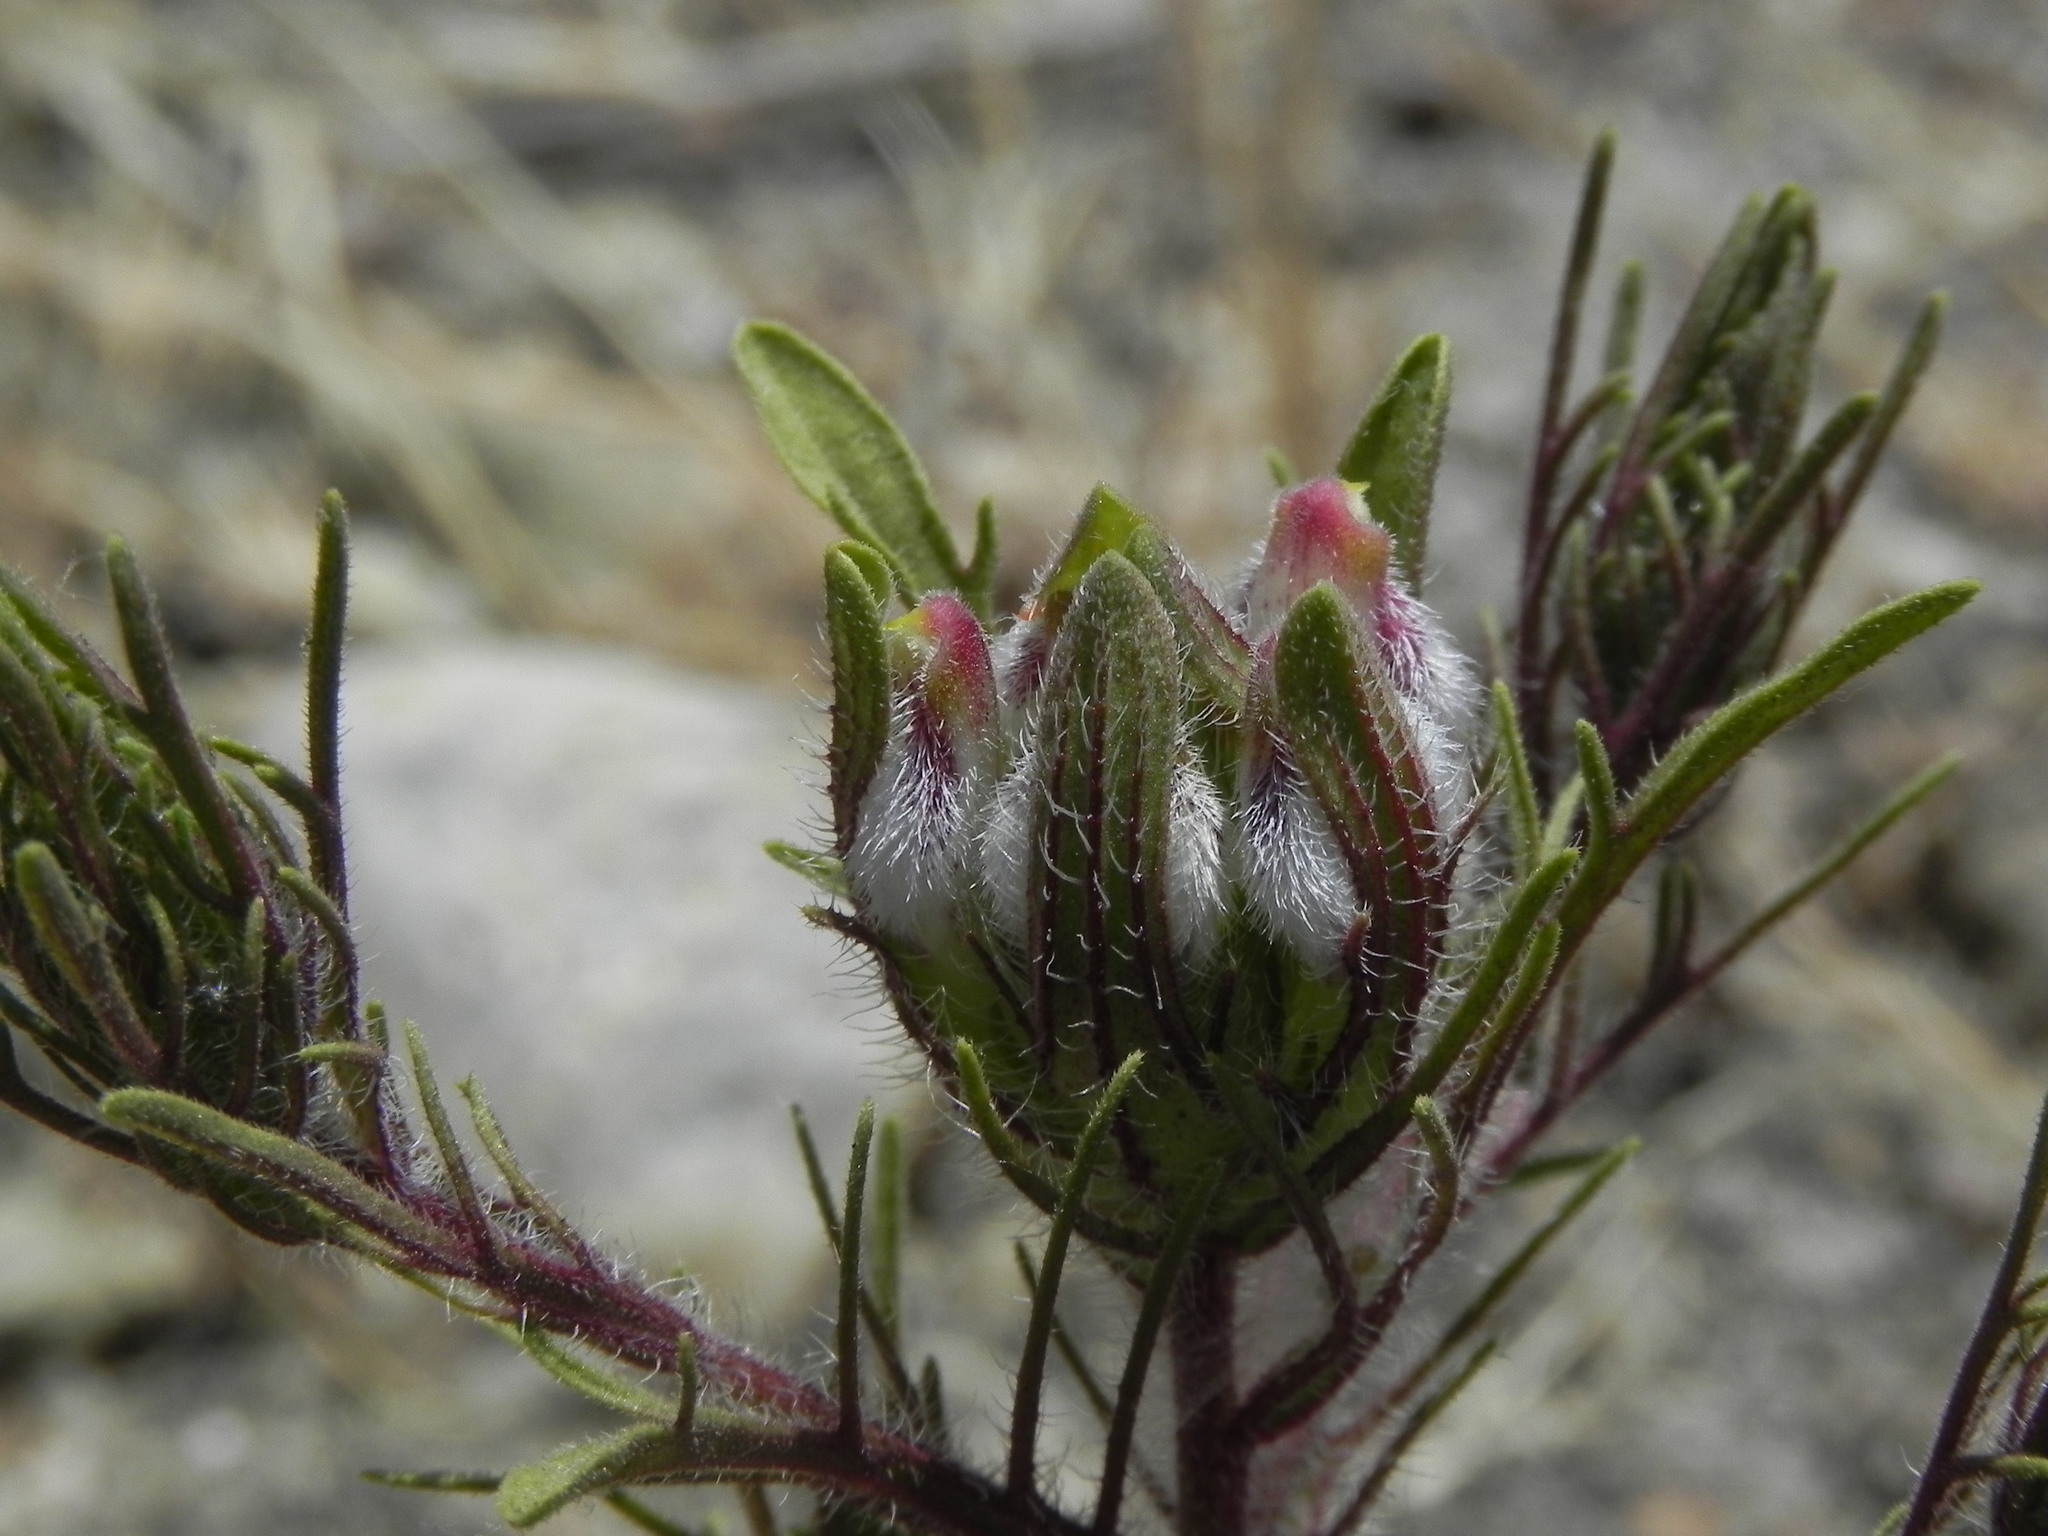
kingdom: Plantae
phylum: Tracheophyta
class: Magnoliopsida
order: Lamiales
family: Orobanchaceae
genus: Dicranostegia
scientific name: Dicranostegia orcuttiana
